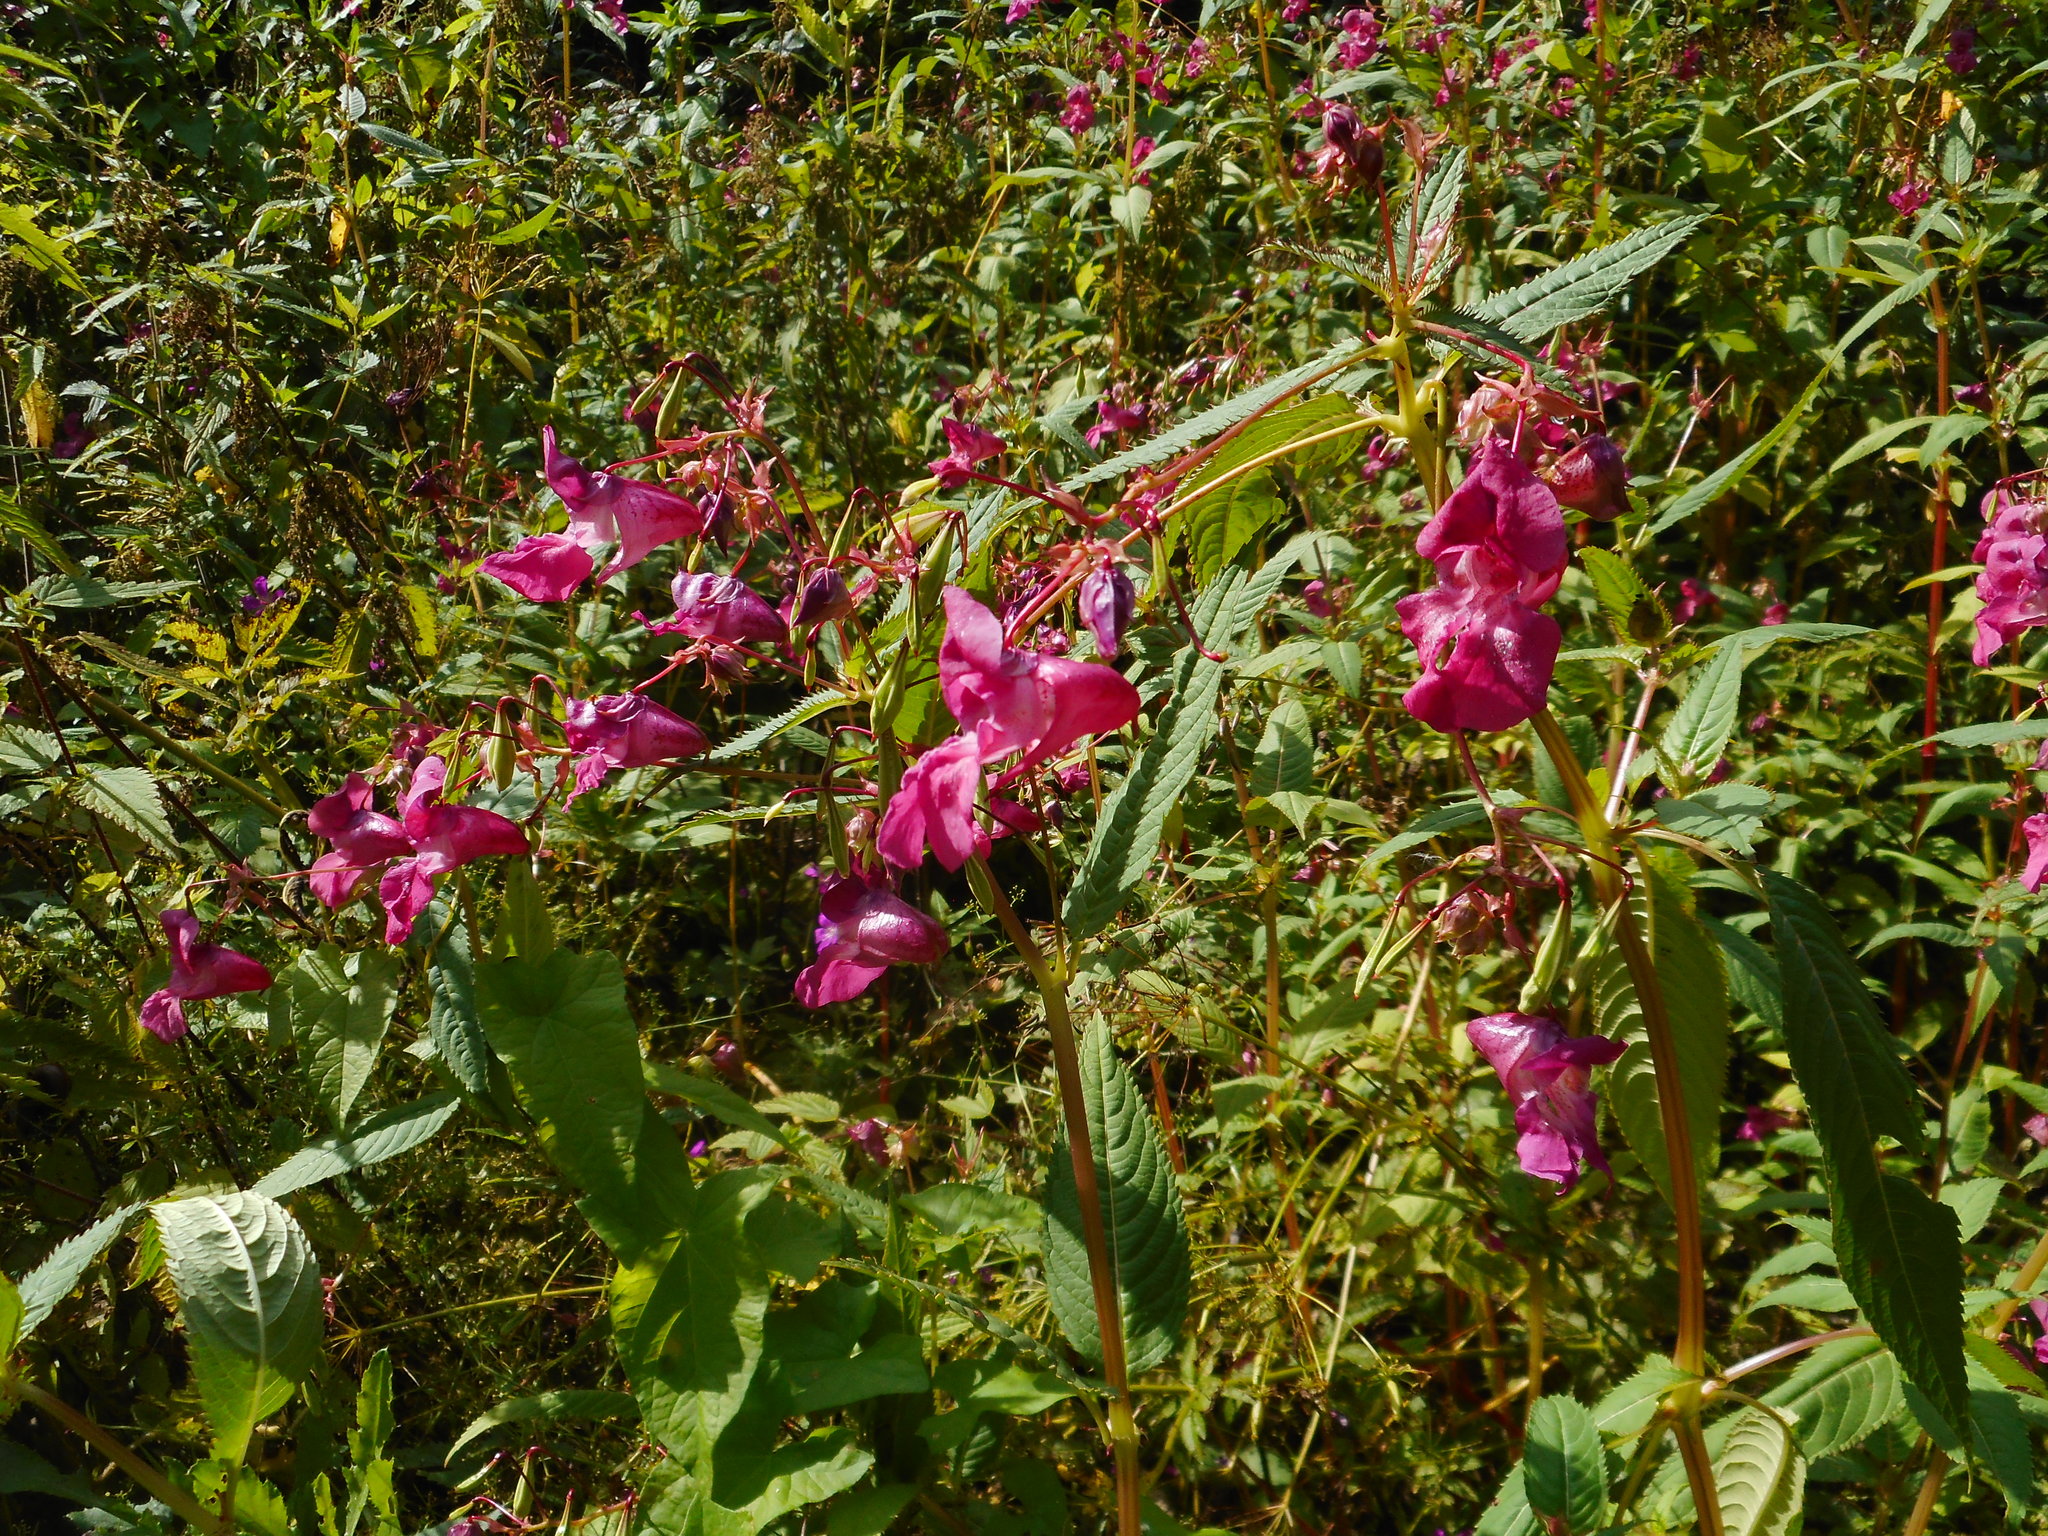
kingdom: Plantae
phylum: Tracheophyta
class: Magnoliopsida
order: Ericales
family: Balsaminaceae
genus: Impatiens
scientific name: Impatiens glandulifera
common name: Himalayan balsam
